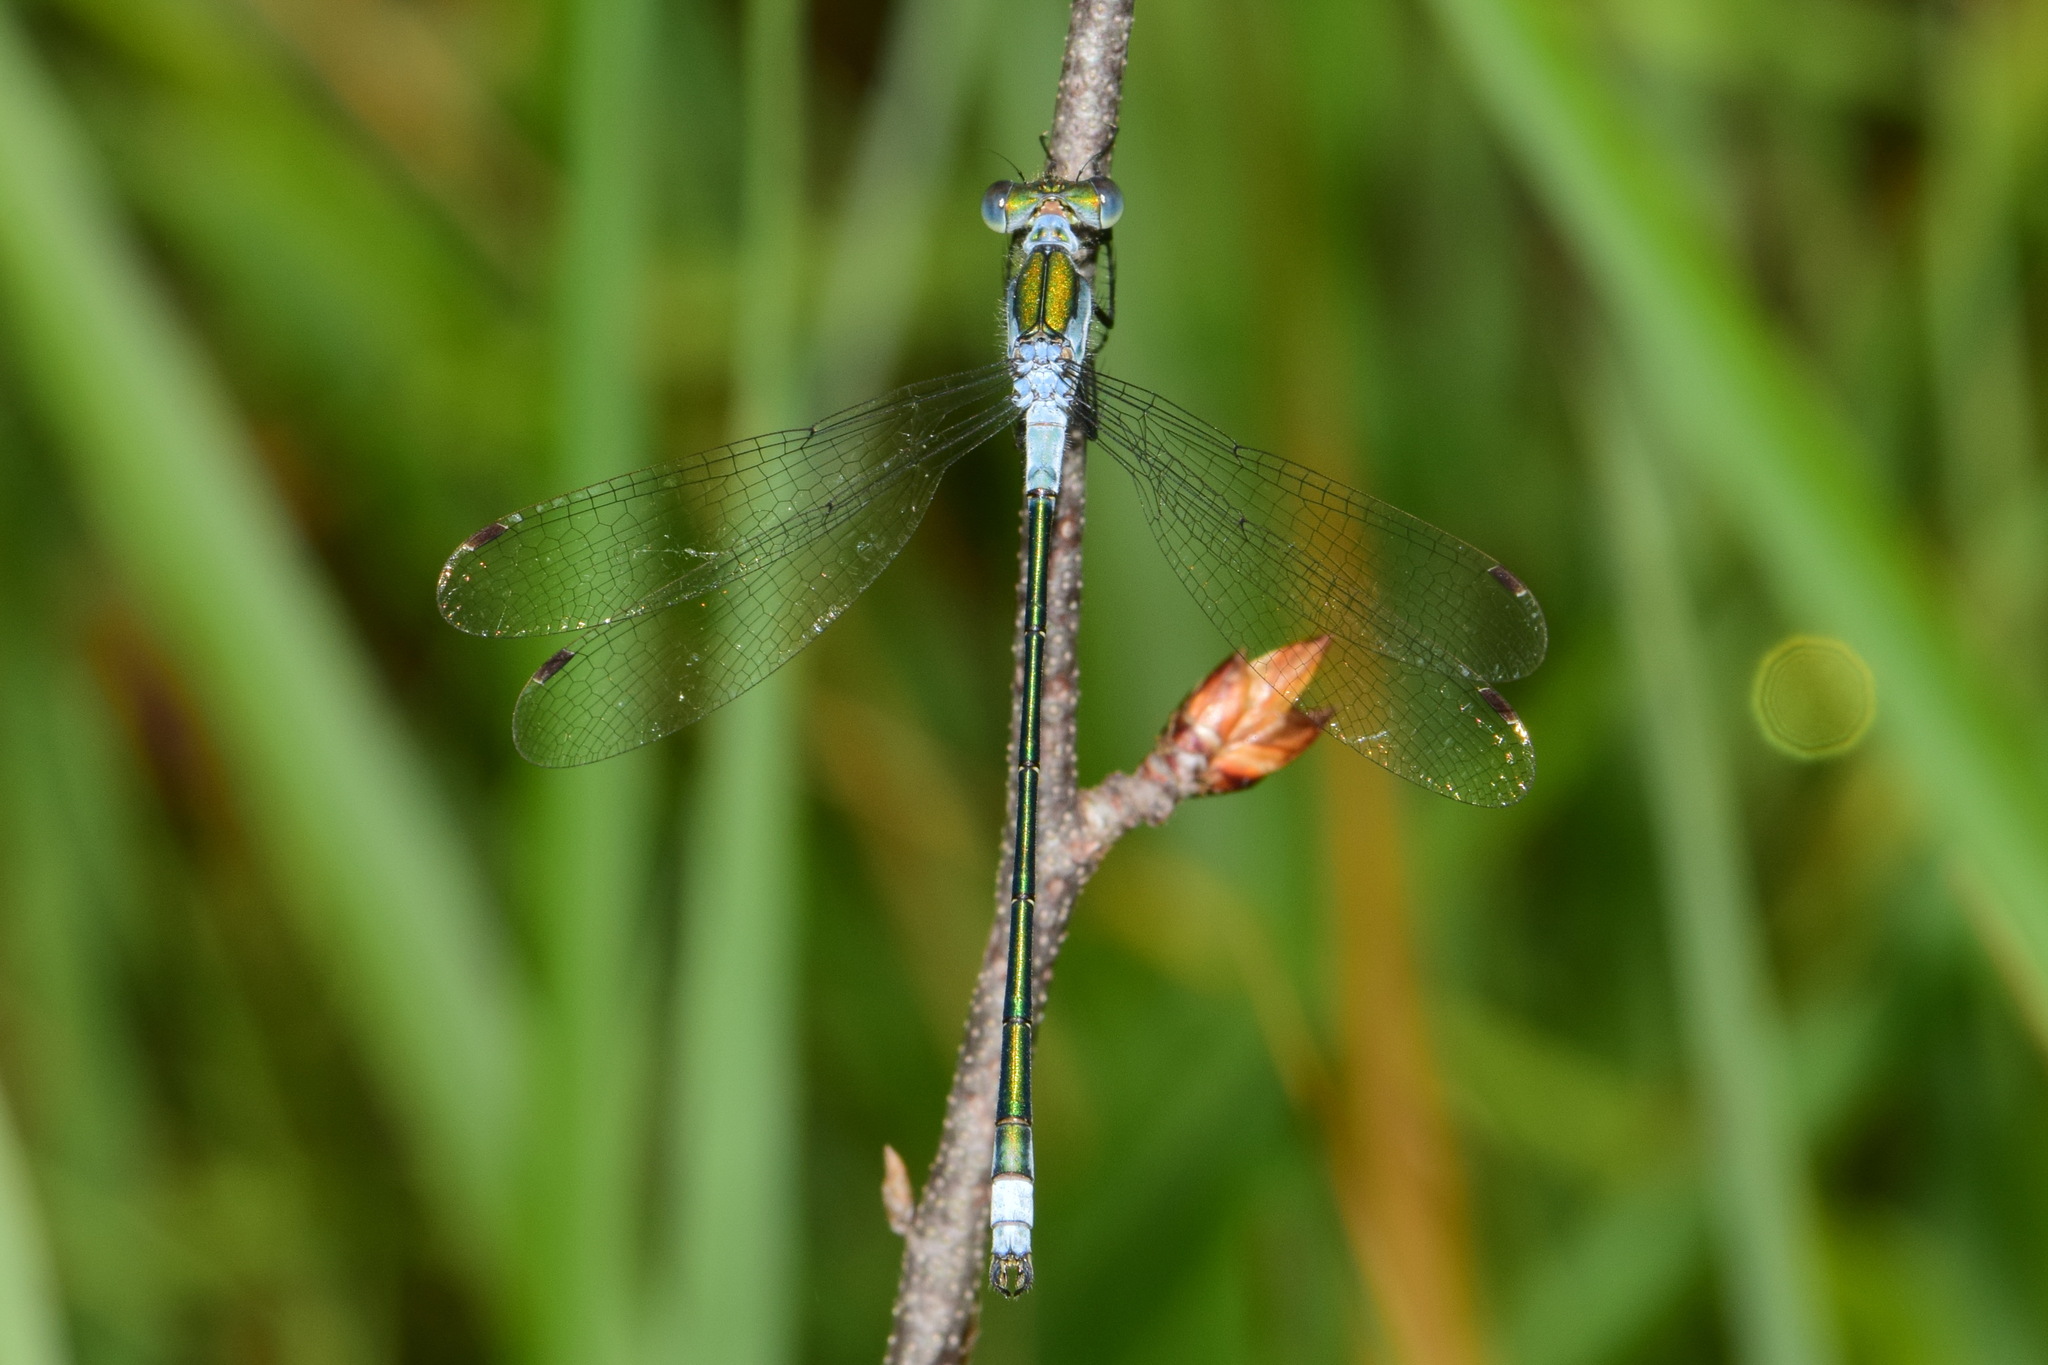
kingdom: Animalia
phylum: Arthropoda
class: Insecta
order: Odonata
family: Lestidae
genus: Lestes
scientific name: Lestes sponsa
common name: Common spreadwing
